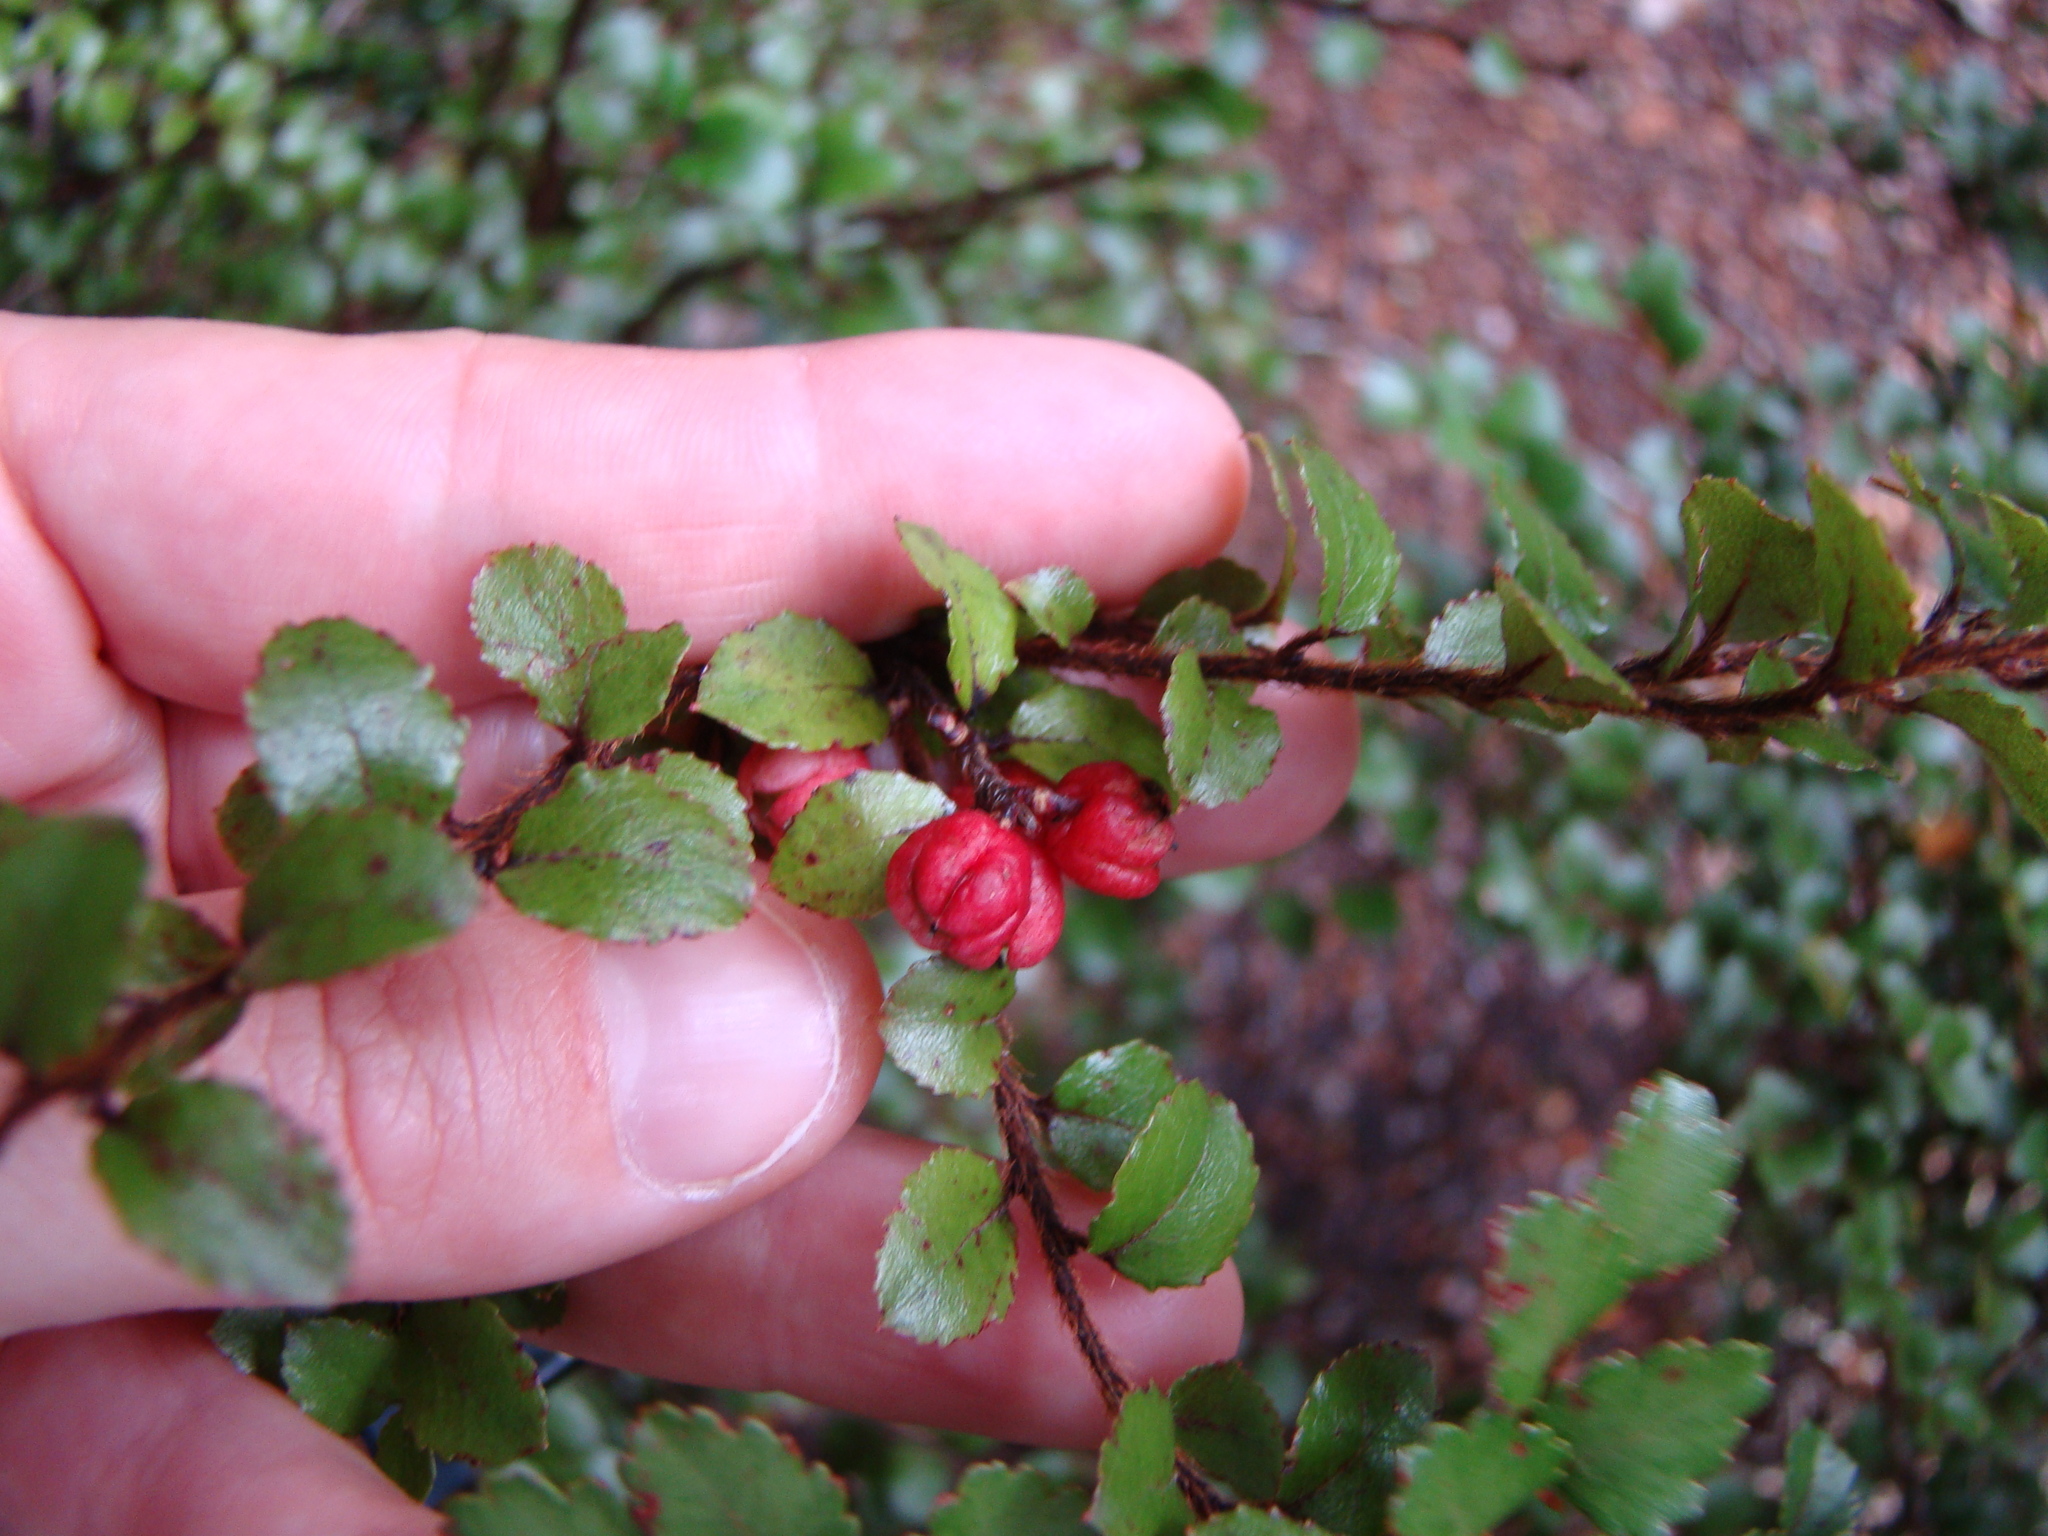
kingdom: Plantae
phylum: Tracheophyta
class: Magnoliopsida
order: Ericales
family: Ericaceae
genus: Gaultheria
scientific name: Gaultheria antipoda
